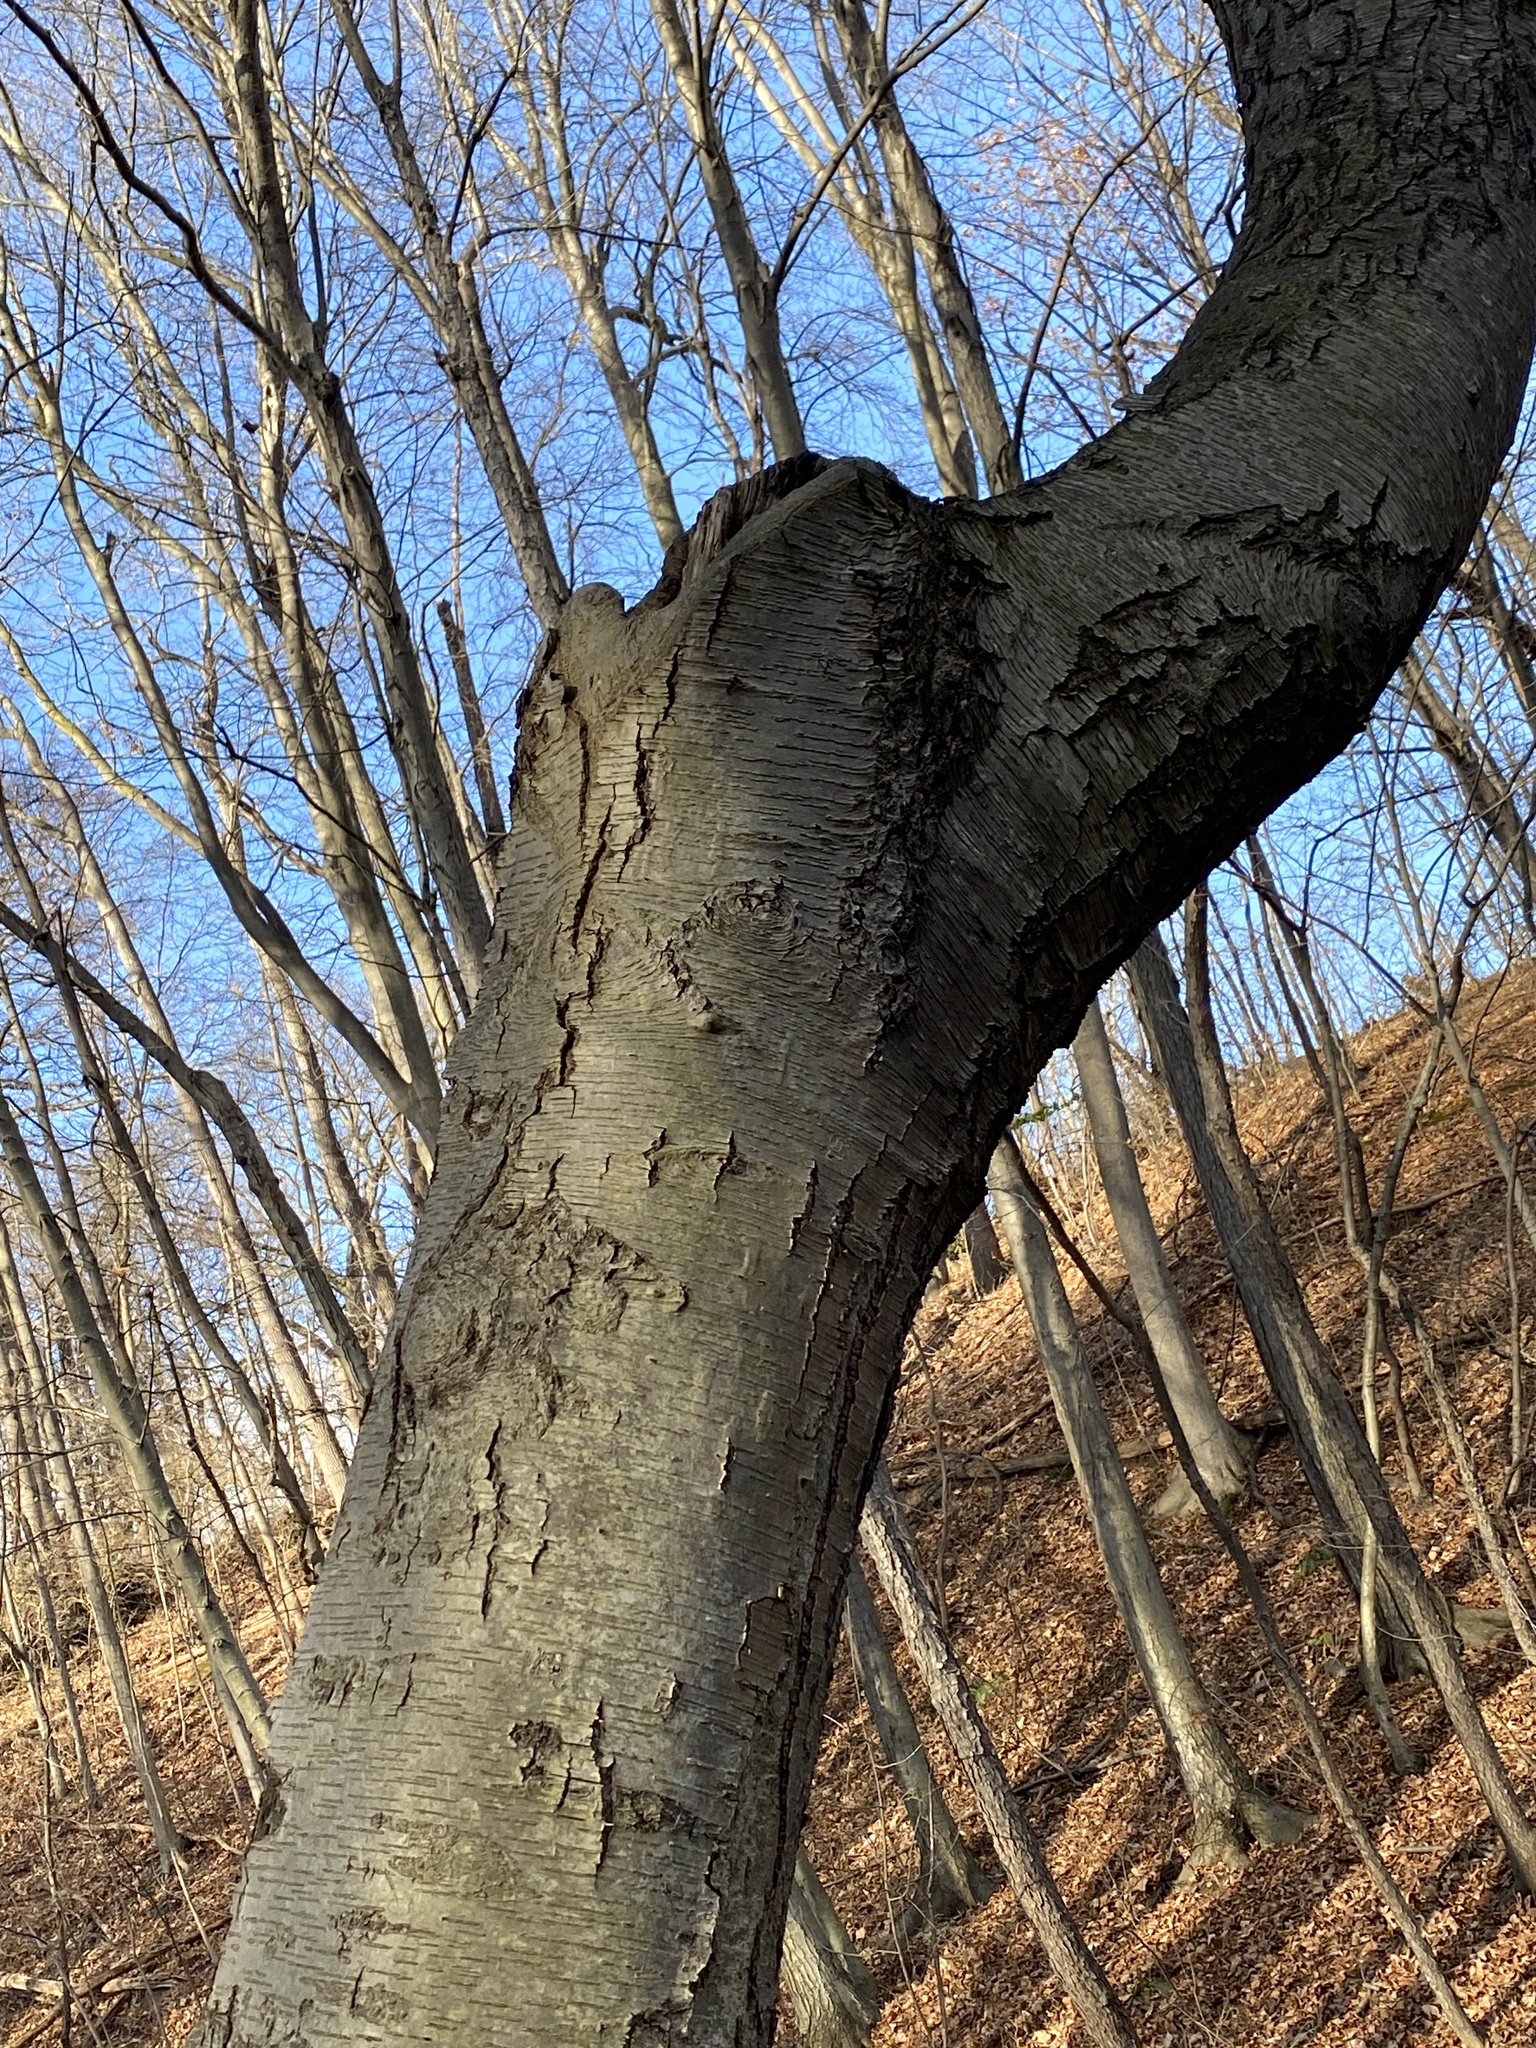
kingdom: Plantae
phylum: Tracheophyta
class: Magnoliopsida
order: Fagales
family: Betulaceae
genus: Betula
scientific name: Betula lenta
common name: Black birch
